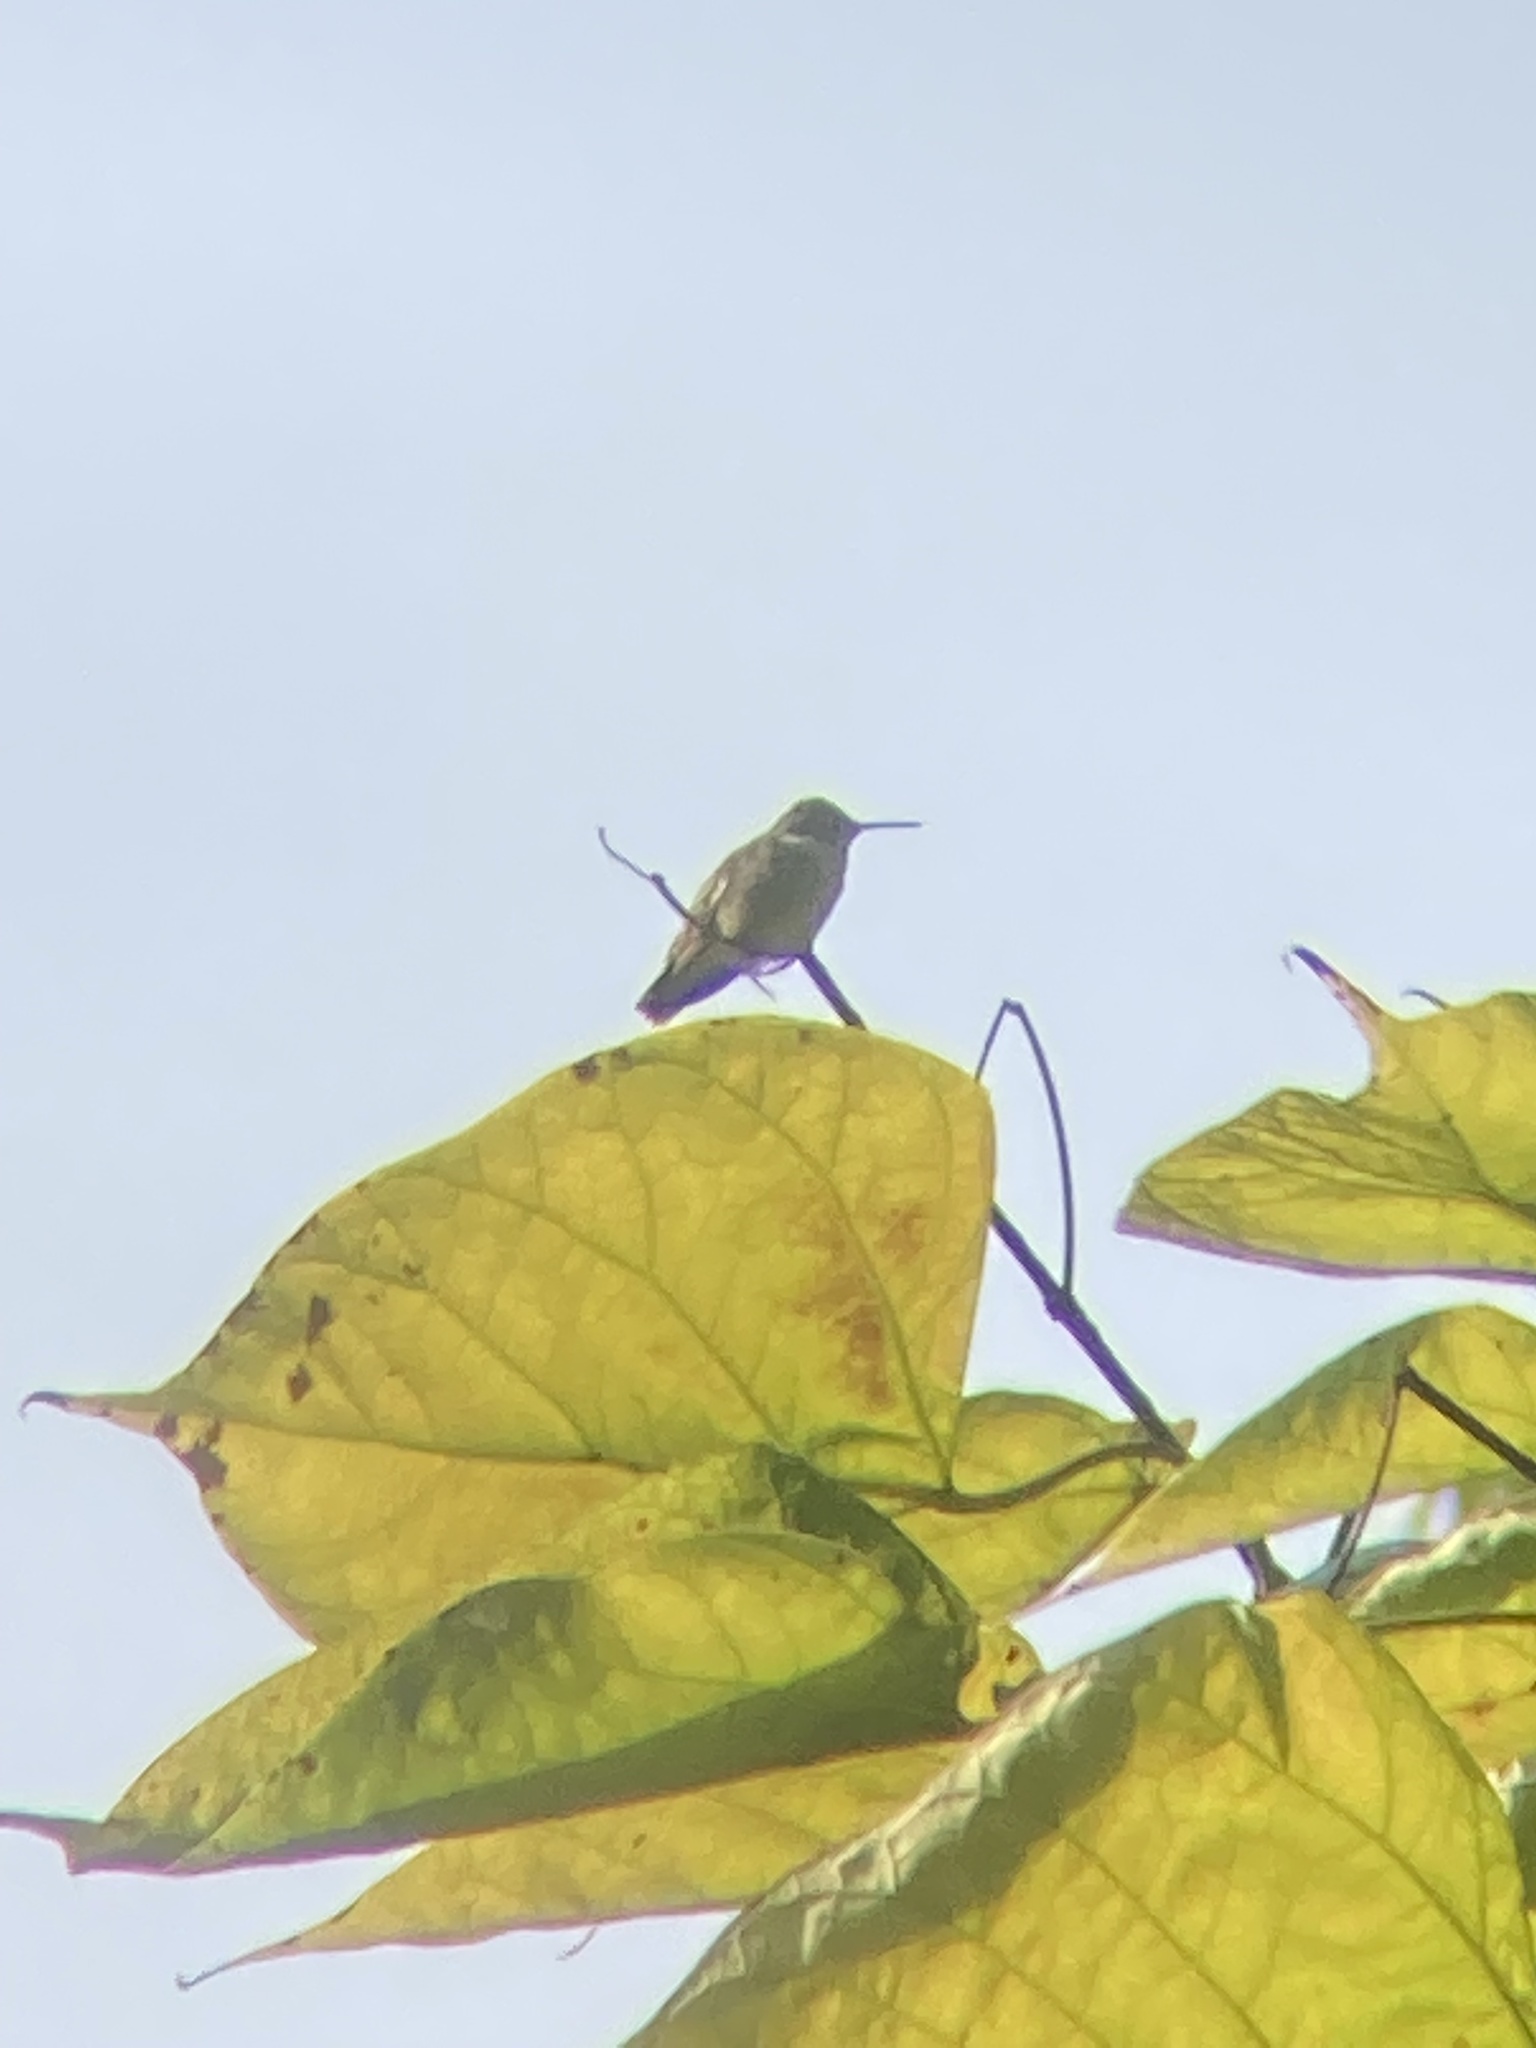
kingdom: Animalia
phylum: Chordata
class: Aves
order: Apodiformes
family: Trochilidae
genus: Archilochus
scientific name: Archilochus colubris
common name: Ruby-throated hummingbird
